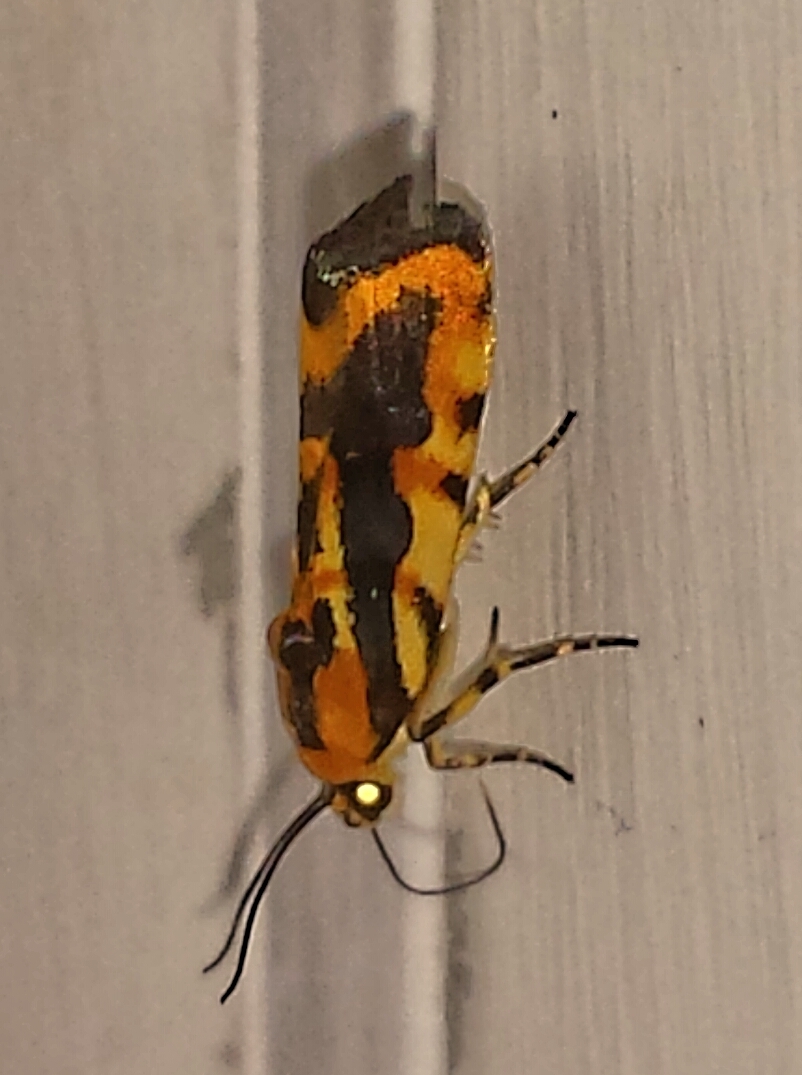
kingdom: Animalia
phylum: Arthropoda
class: Insecta
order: Lepidoptera
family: Noctuidae
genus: Acontia
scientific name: Acontia leo
